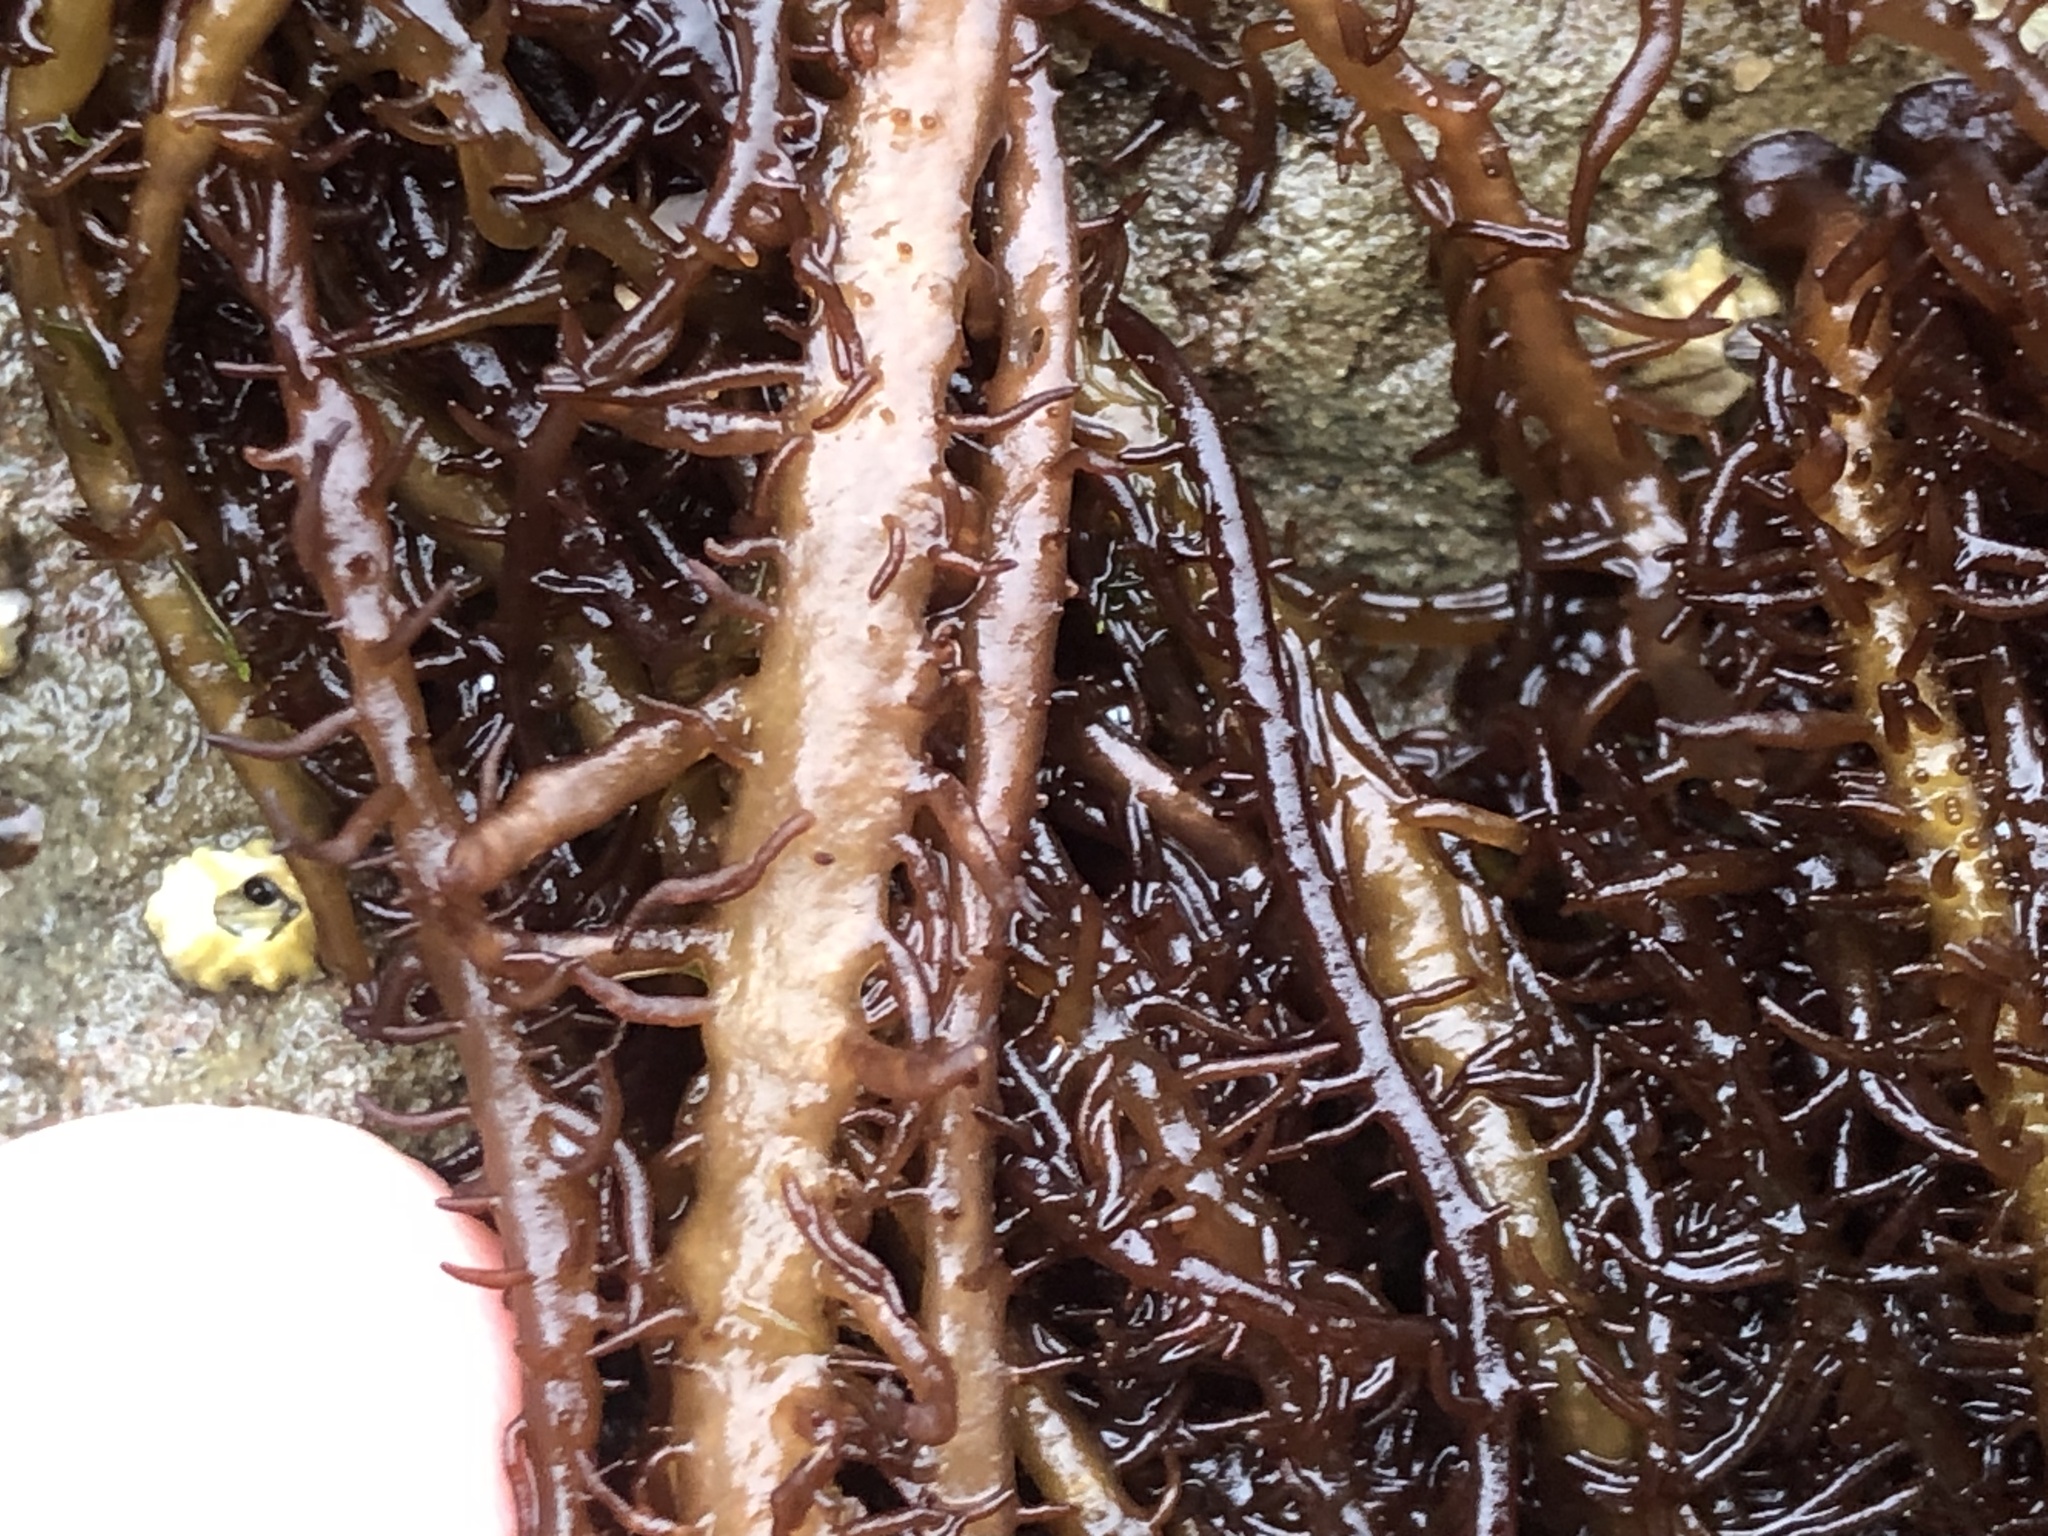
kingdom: Plantae
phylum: Rhodophyta
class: Florideophyceae
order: Nemaliales
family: Liagoraceae
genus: Cumagloia
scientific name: Cumagloia andersonii
